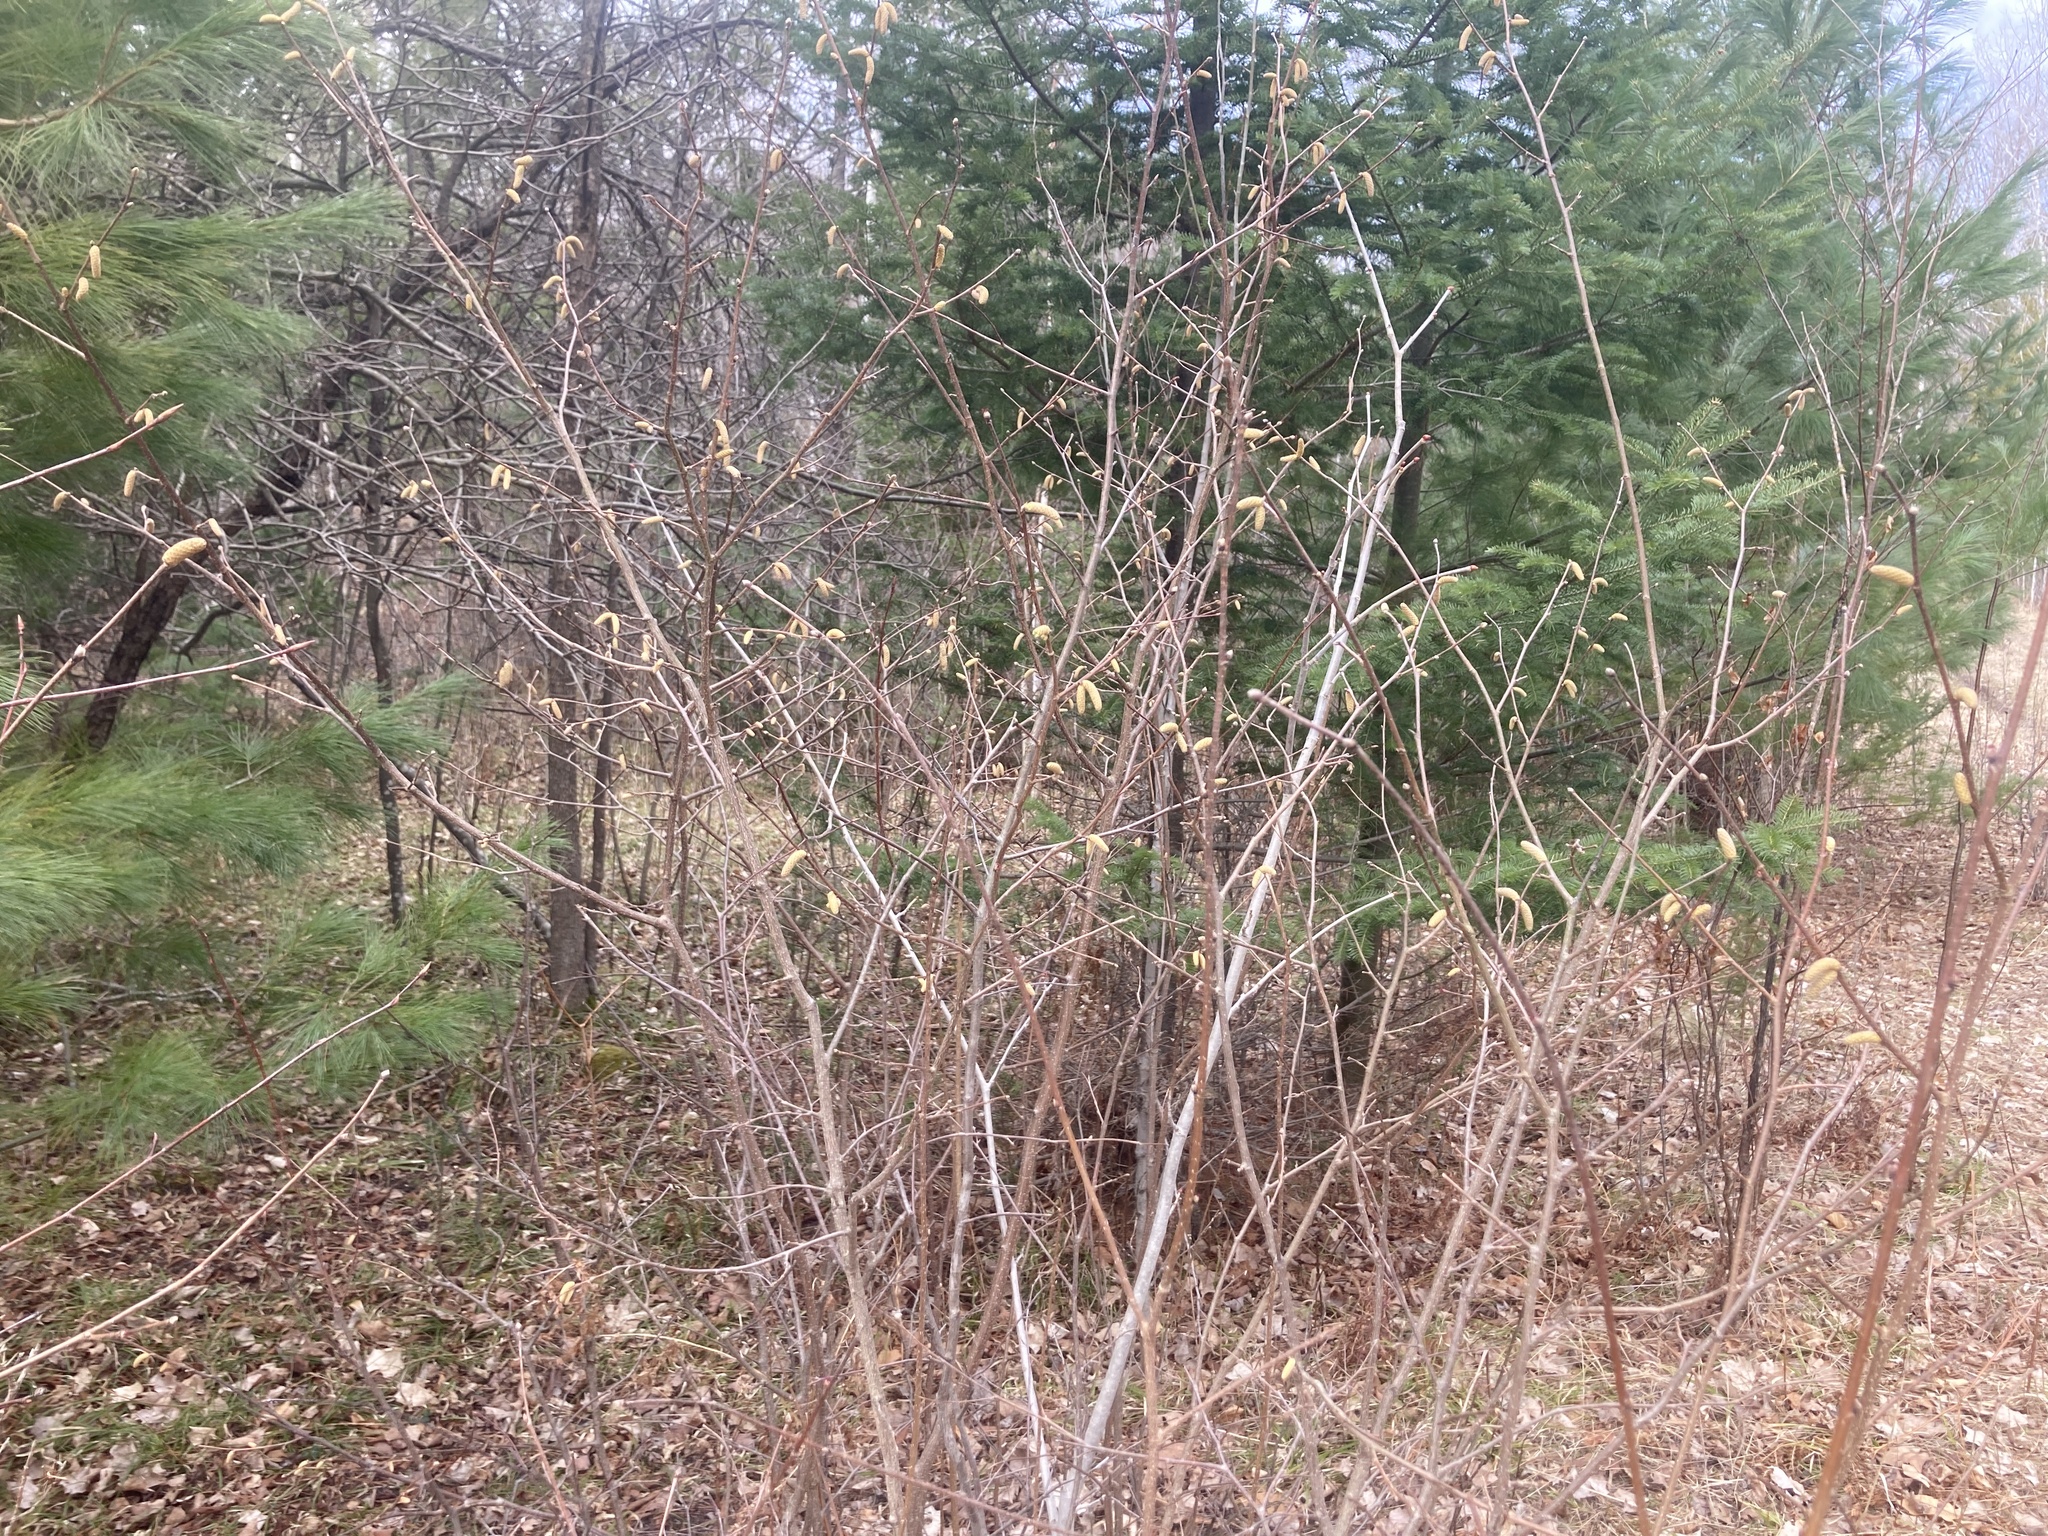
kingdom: Plantae
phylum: Tracheophyta
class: Magnoliopsida
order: Fagales
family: Betulaceae
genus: Corylus
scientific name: Corylus cornuta
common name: Beaked hazel
